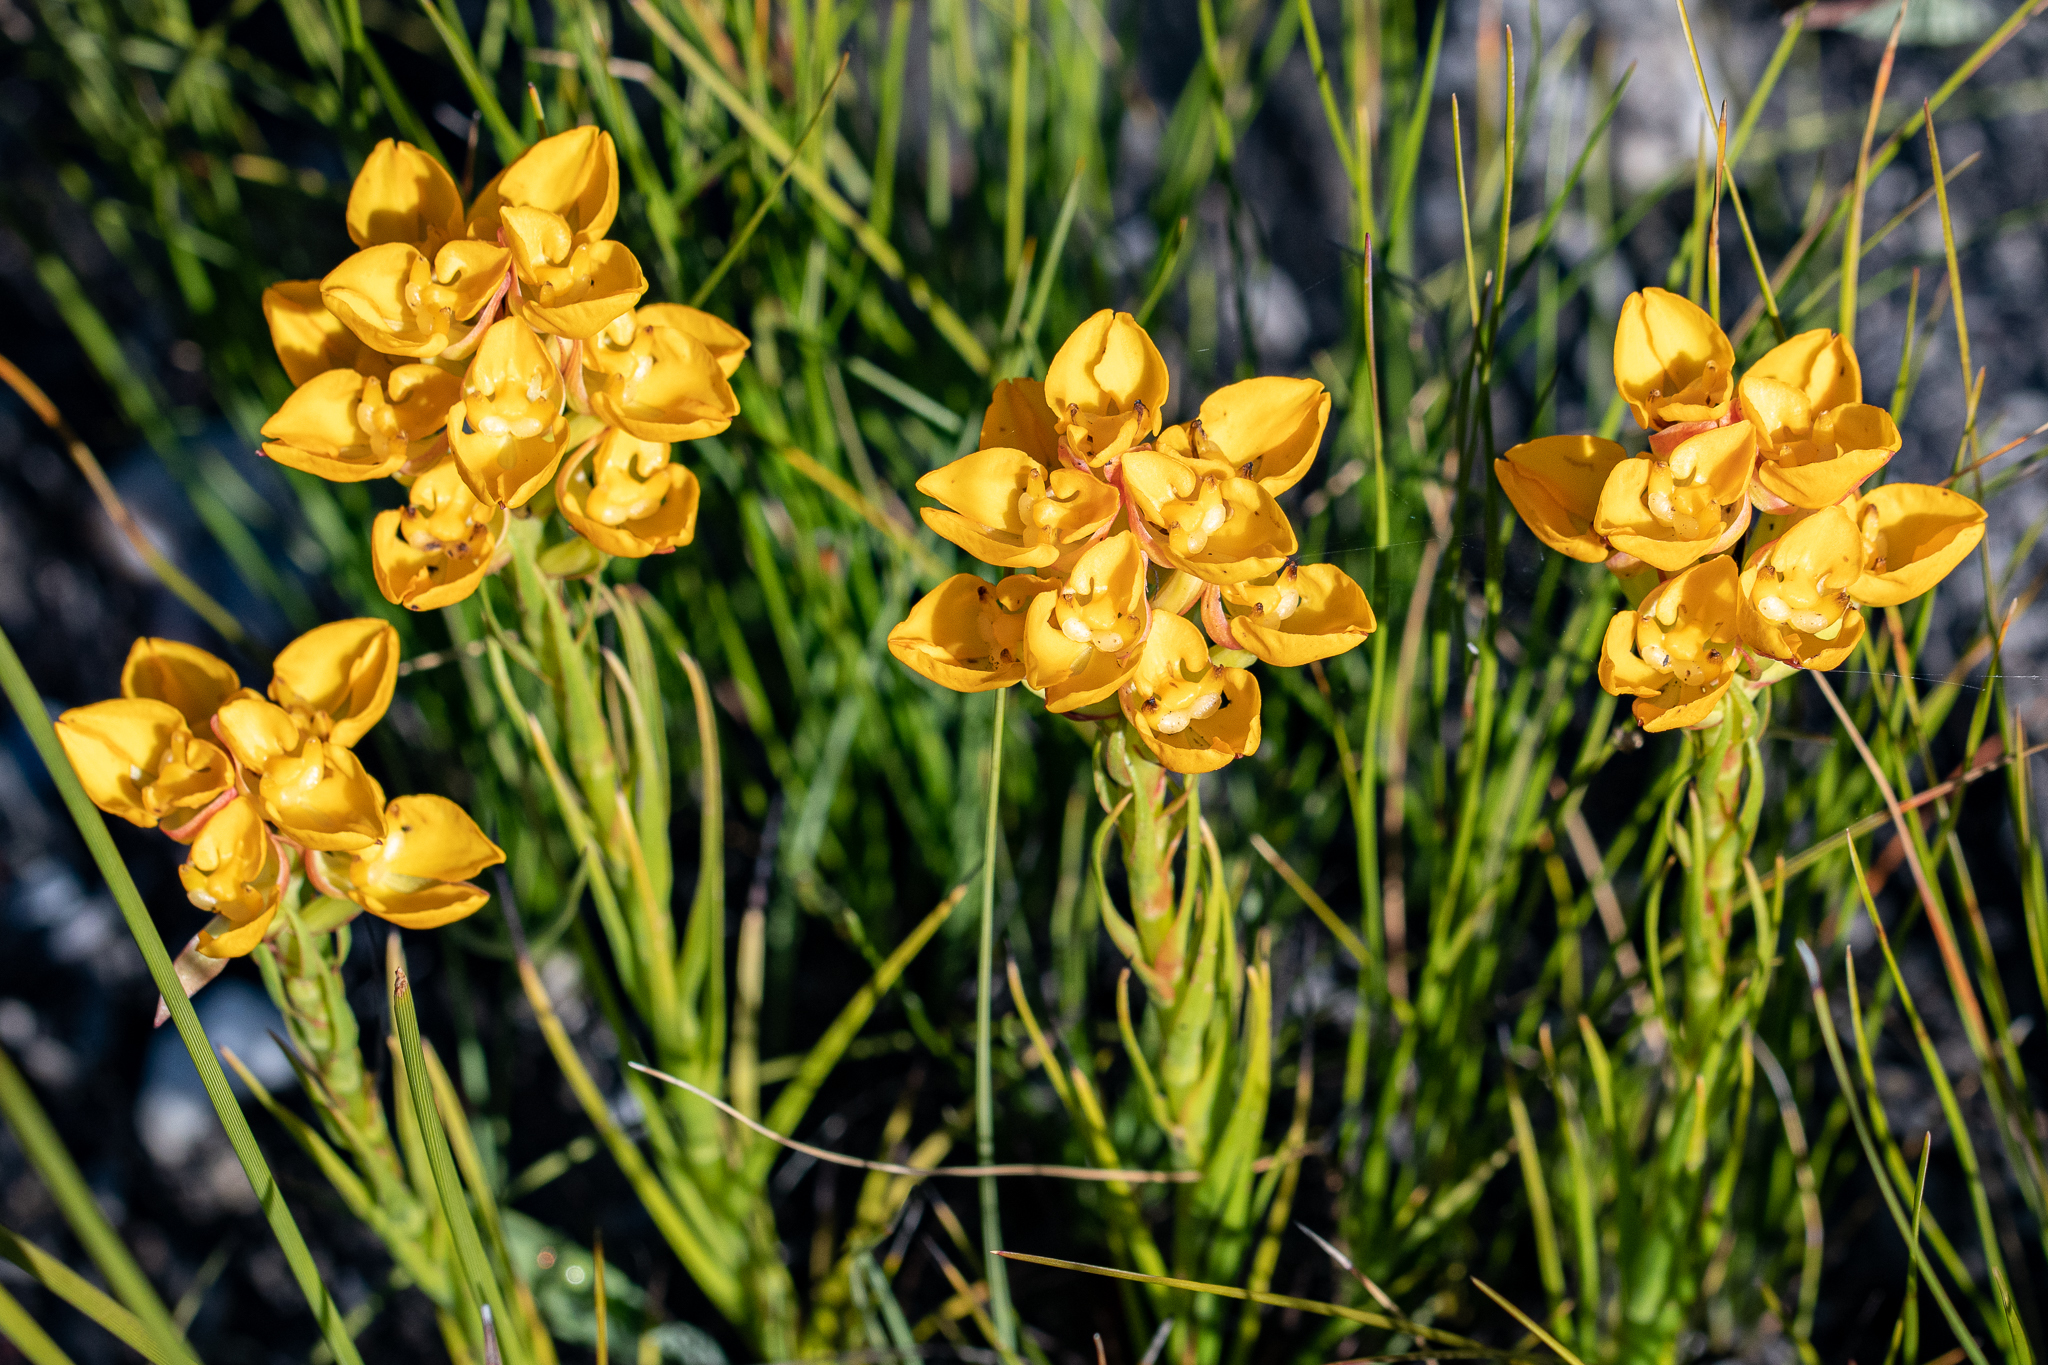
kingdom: Plantae
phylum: Tracheophyta
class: Liliopsida
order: Asparagales
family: Orchidaceae
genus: Ceratandra
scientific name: Ceratandra grandiflora
